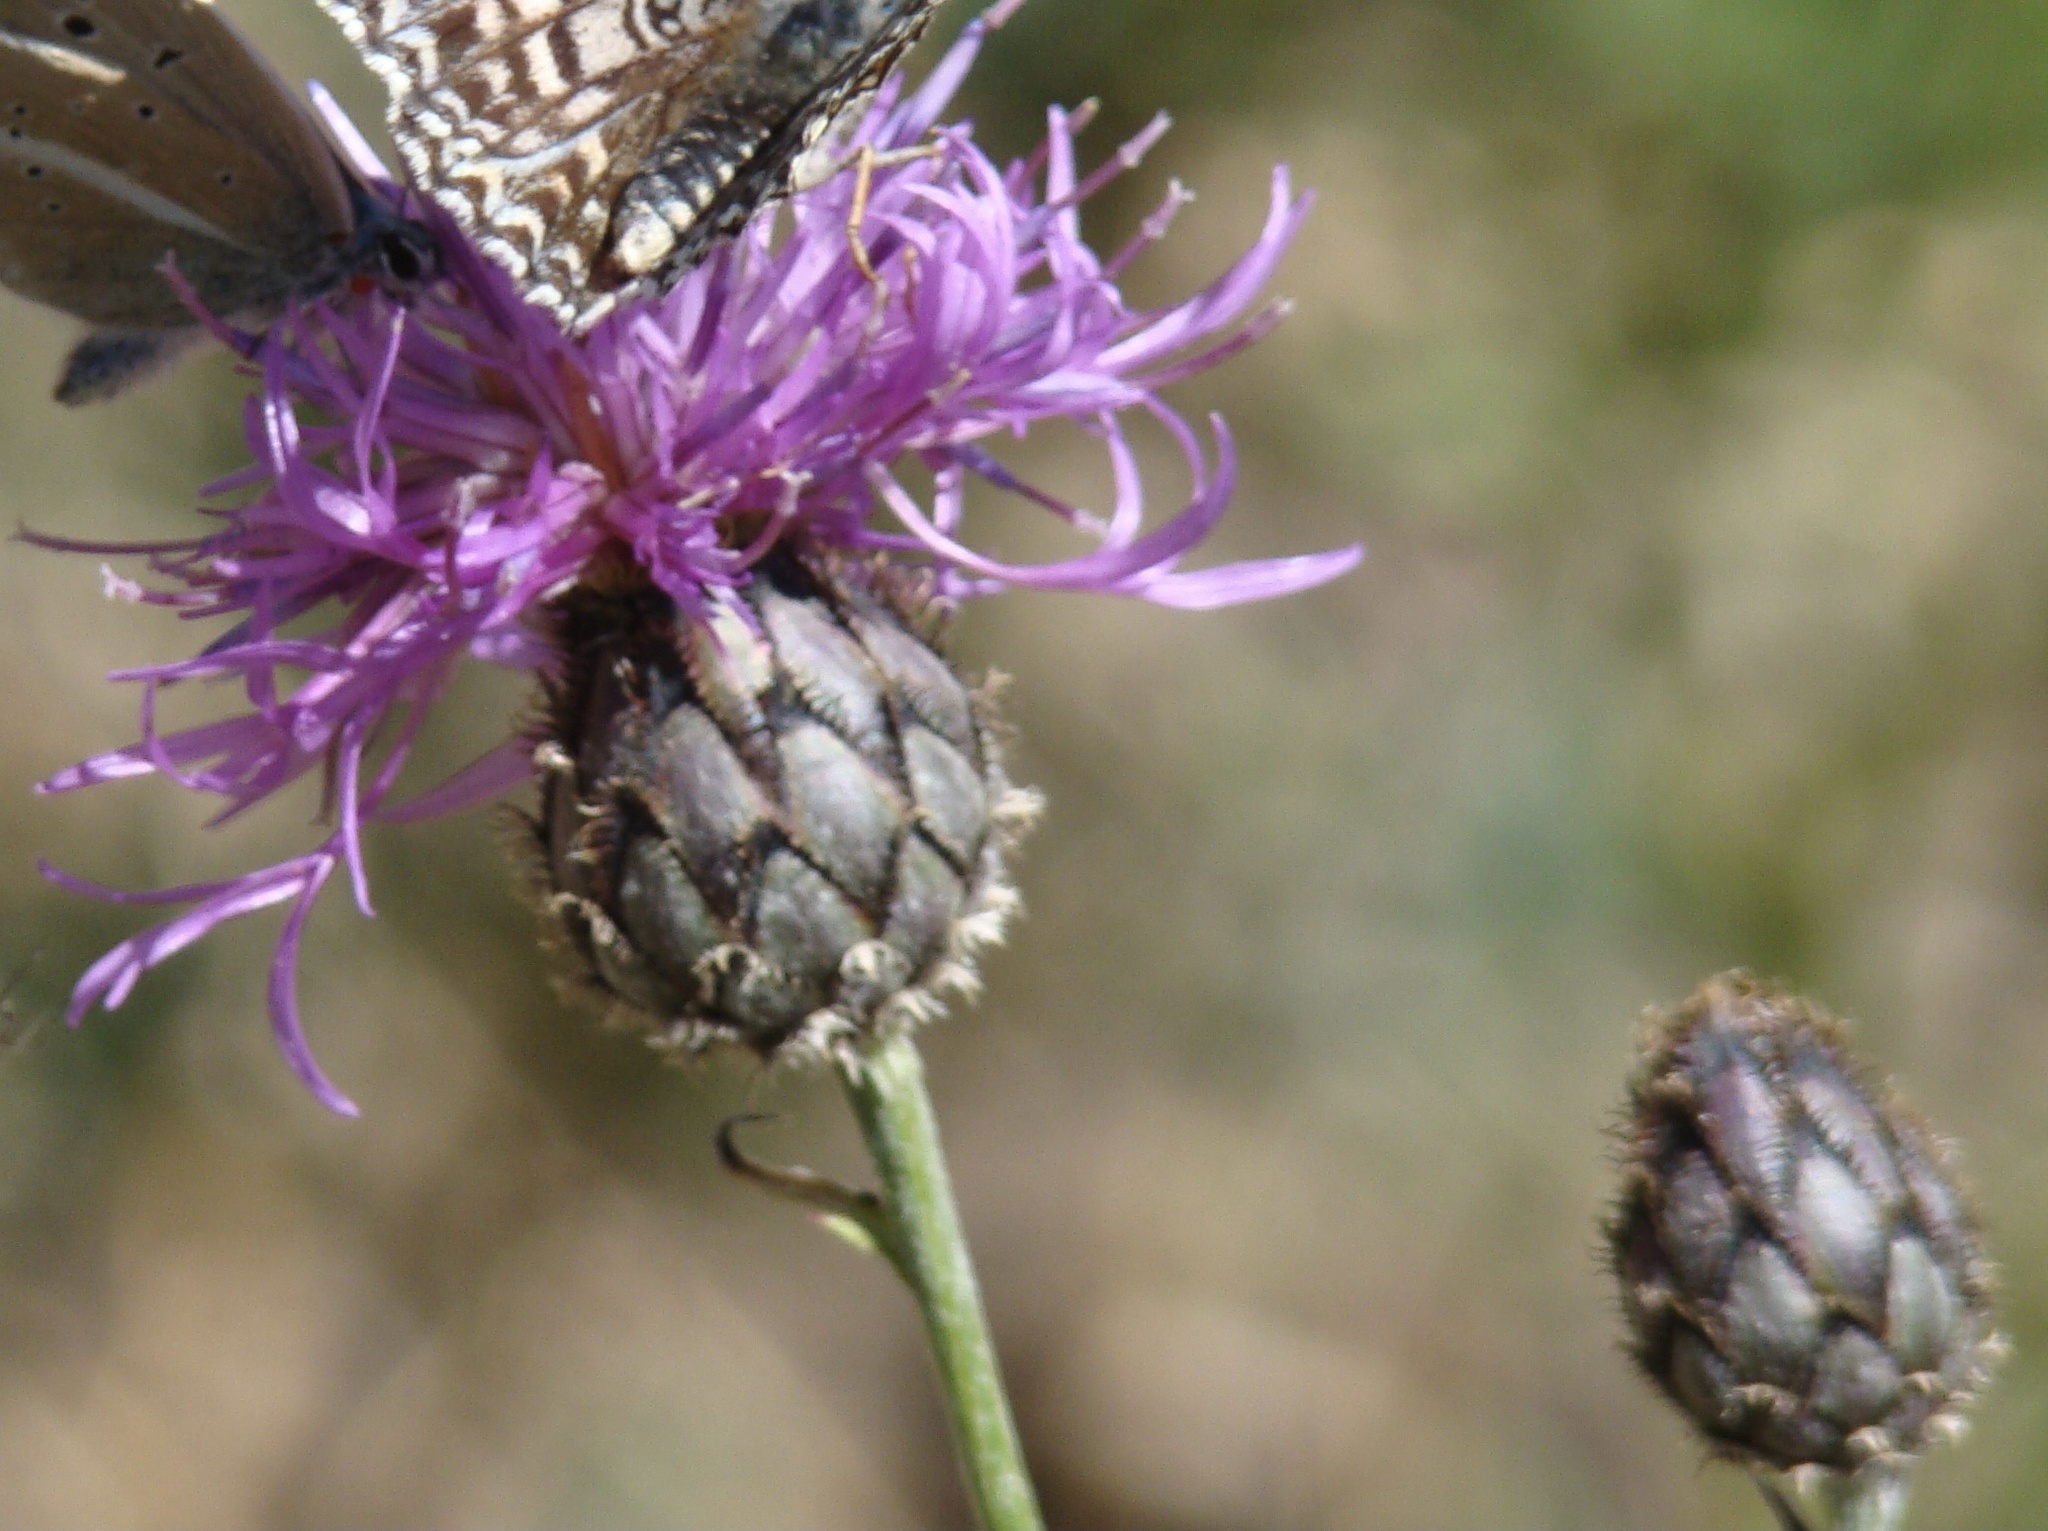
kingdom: Plantae
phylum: Tracheophyta
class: Magnoliopsida
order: Asterales
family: Asteraceae
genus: Centaurea
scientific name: Centaurea scabiosa
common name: Greater knapweed
